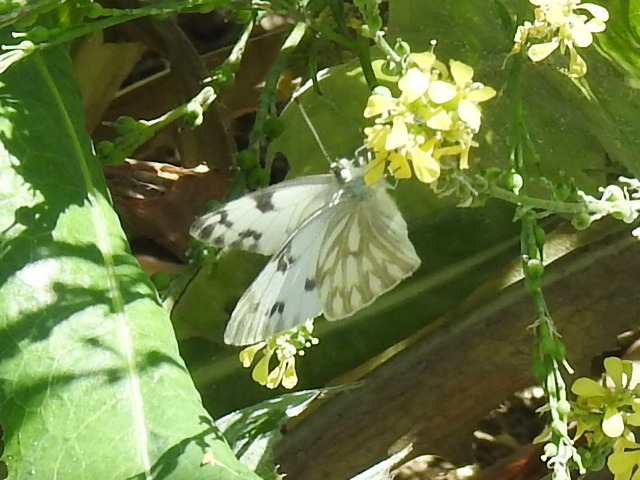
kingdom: Animalia
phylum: Arthropoda
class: Insecta
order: Lepidoptera
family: Pieridae
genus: Pontia
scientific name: Pontia protodice
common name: Checkered white
